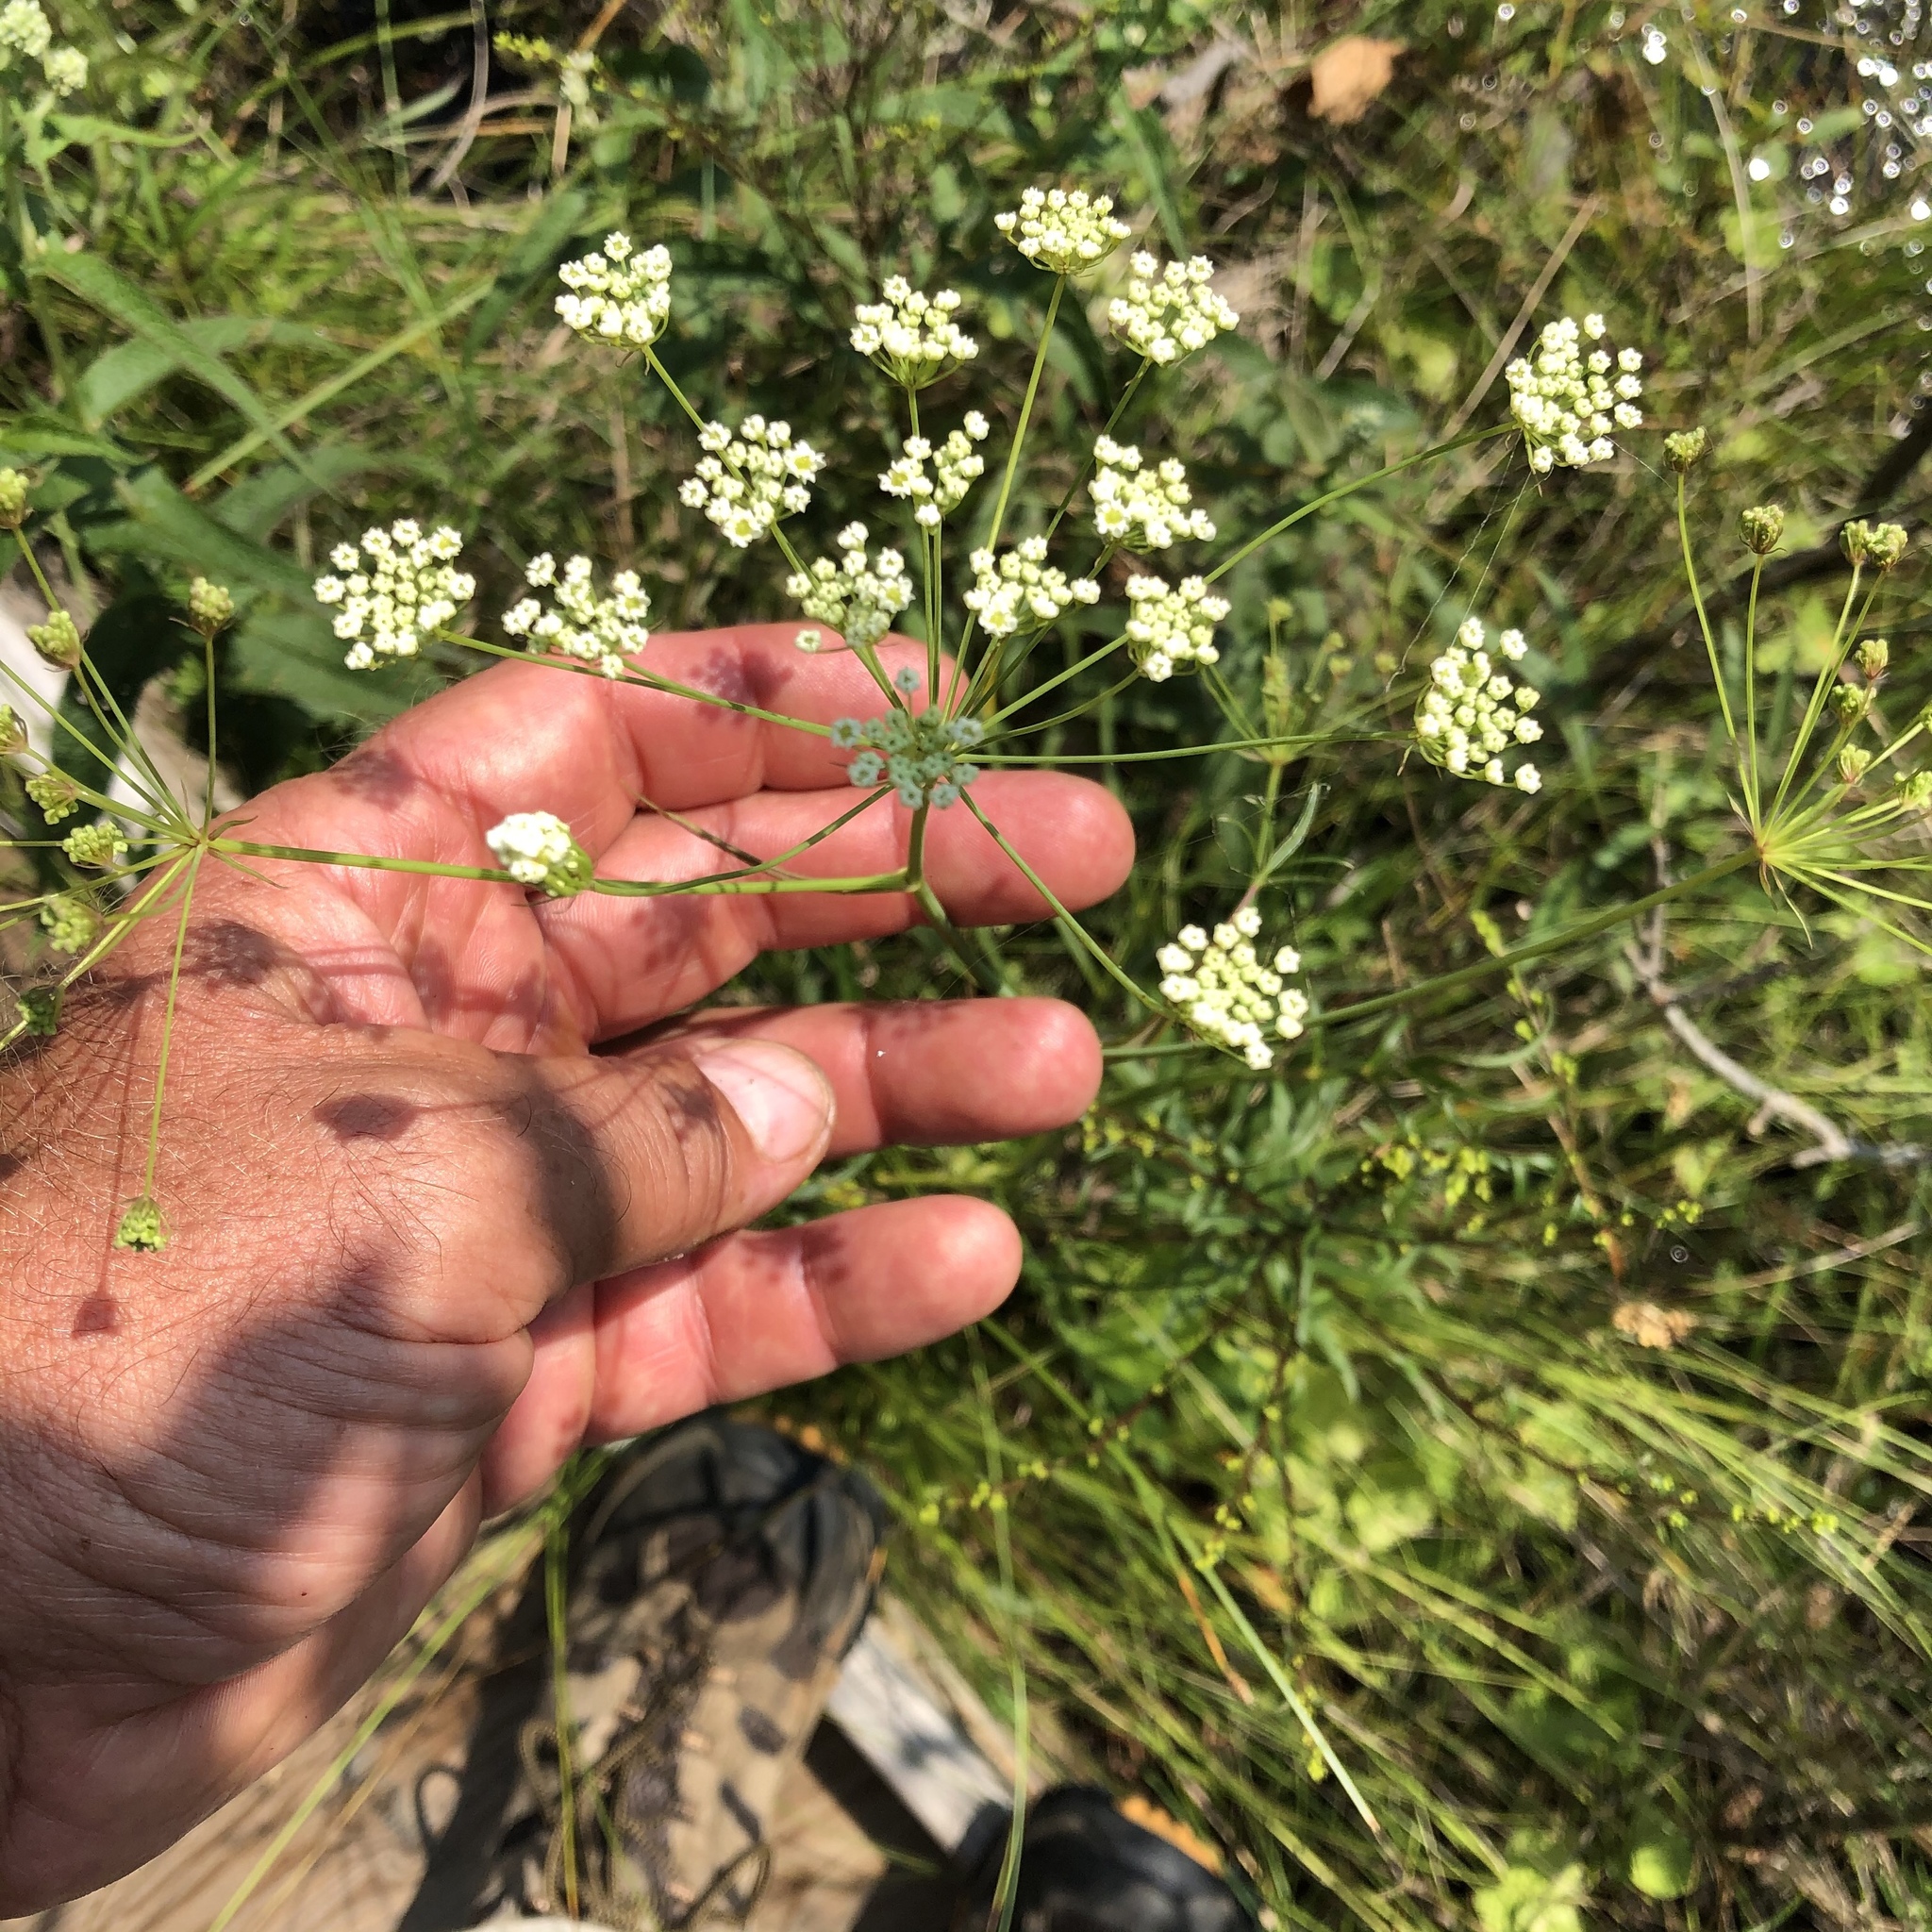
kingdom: Plantae
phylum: Tracheophyta
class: Magnoliopsida
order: Apiales
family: Apiaceae
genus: Oxypolis
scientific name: Oxypolis rigidior
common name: Cowbane
